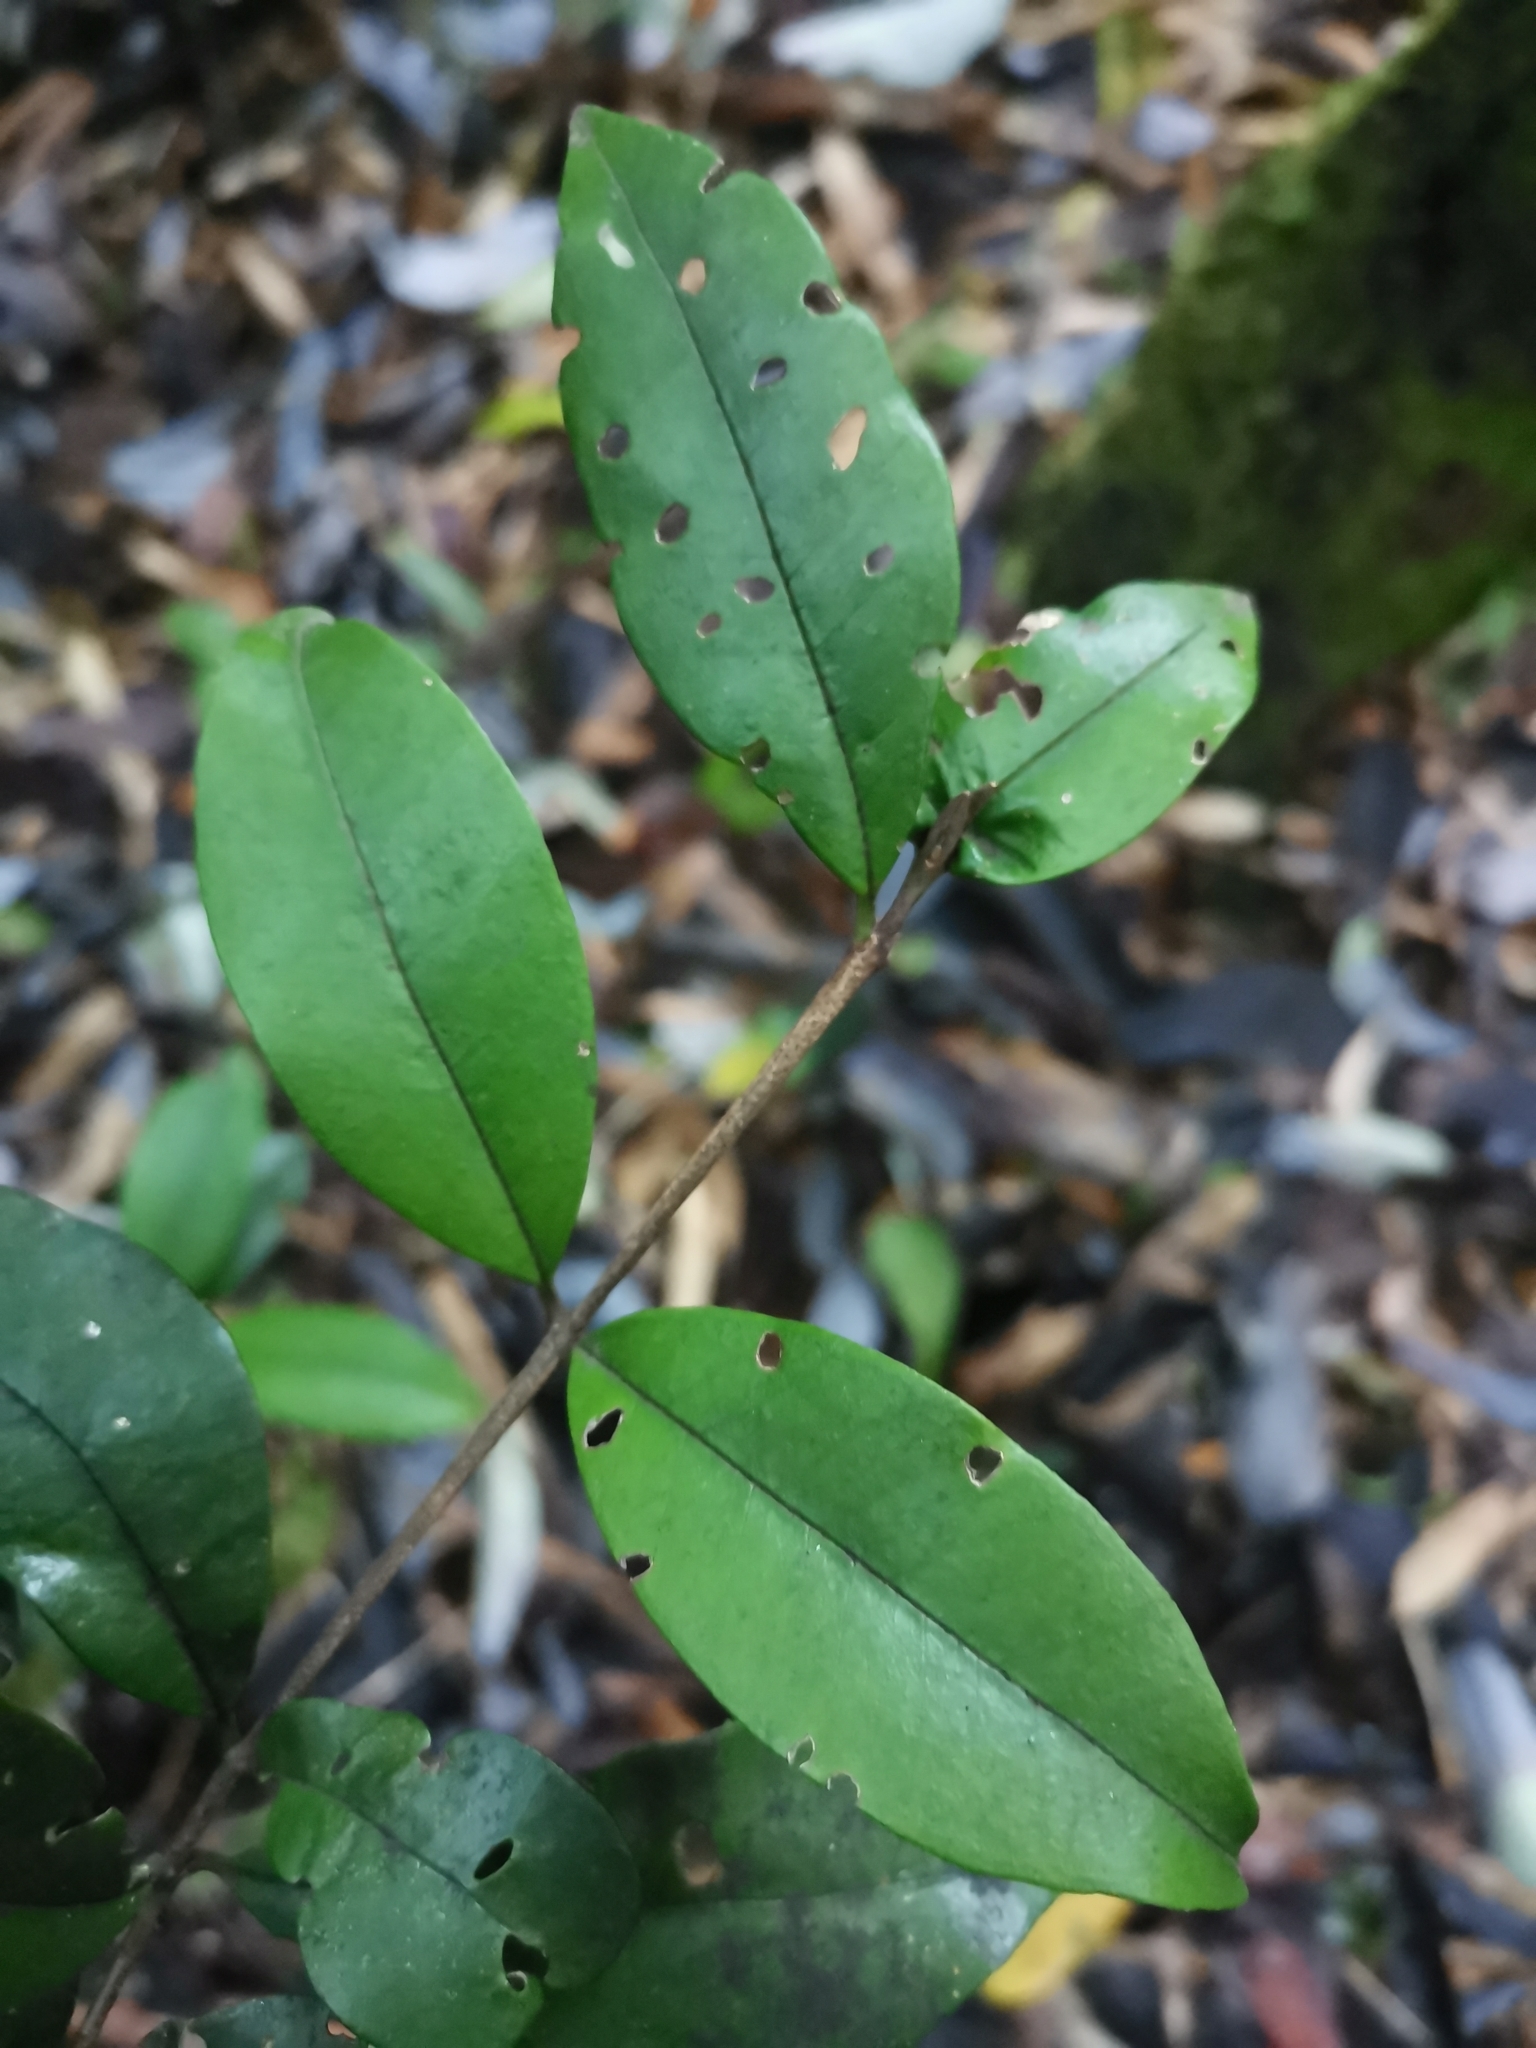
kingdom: Plantae
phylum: Tracheophyta
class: Magnoliopsida
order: Myrtales
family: Myrtaceae
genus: Myrceugenia
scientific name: Myrceugenia planipes
